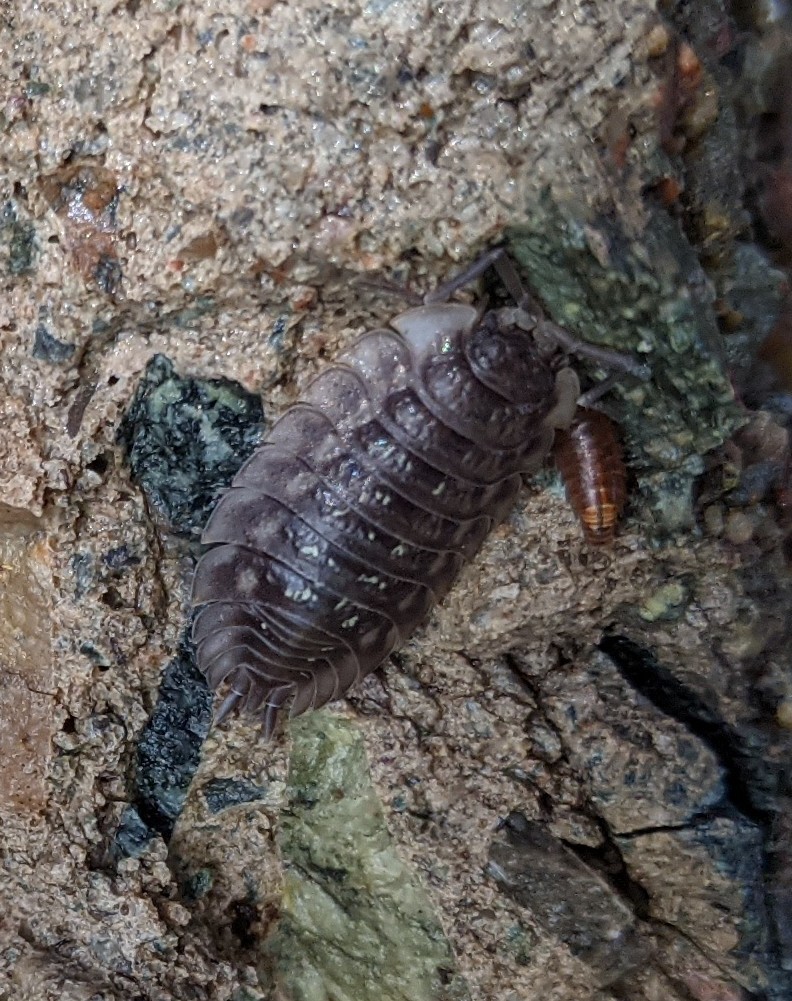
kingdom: Animalia
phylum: Arthropoda
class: Malacostraca
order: Isopoda
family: Oniscidae
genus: Oniscus
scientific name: Oniscus asellus
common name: Common shiny woodlouse
